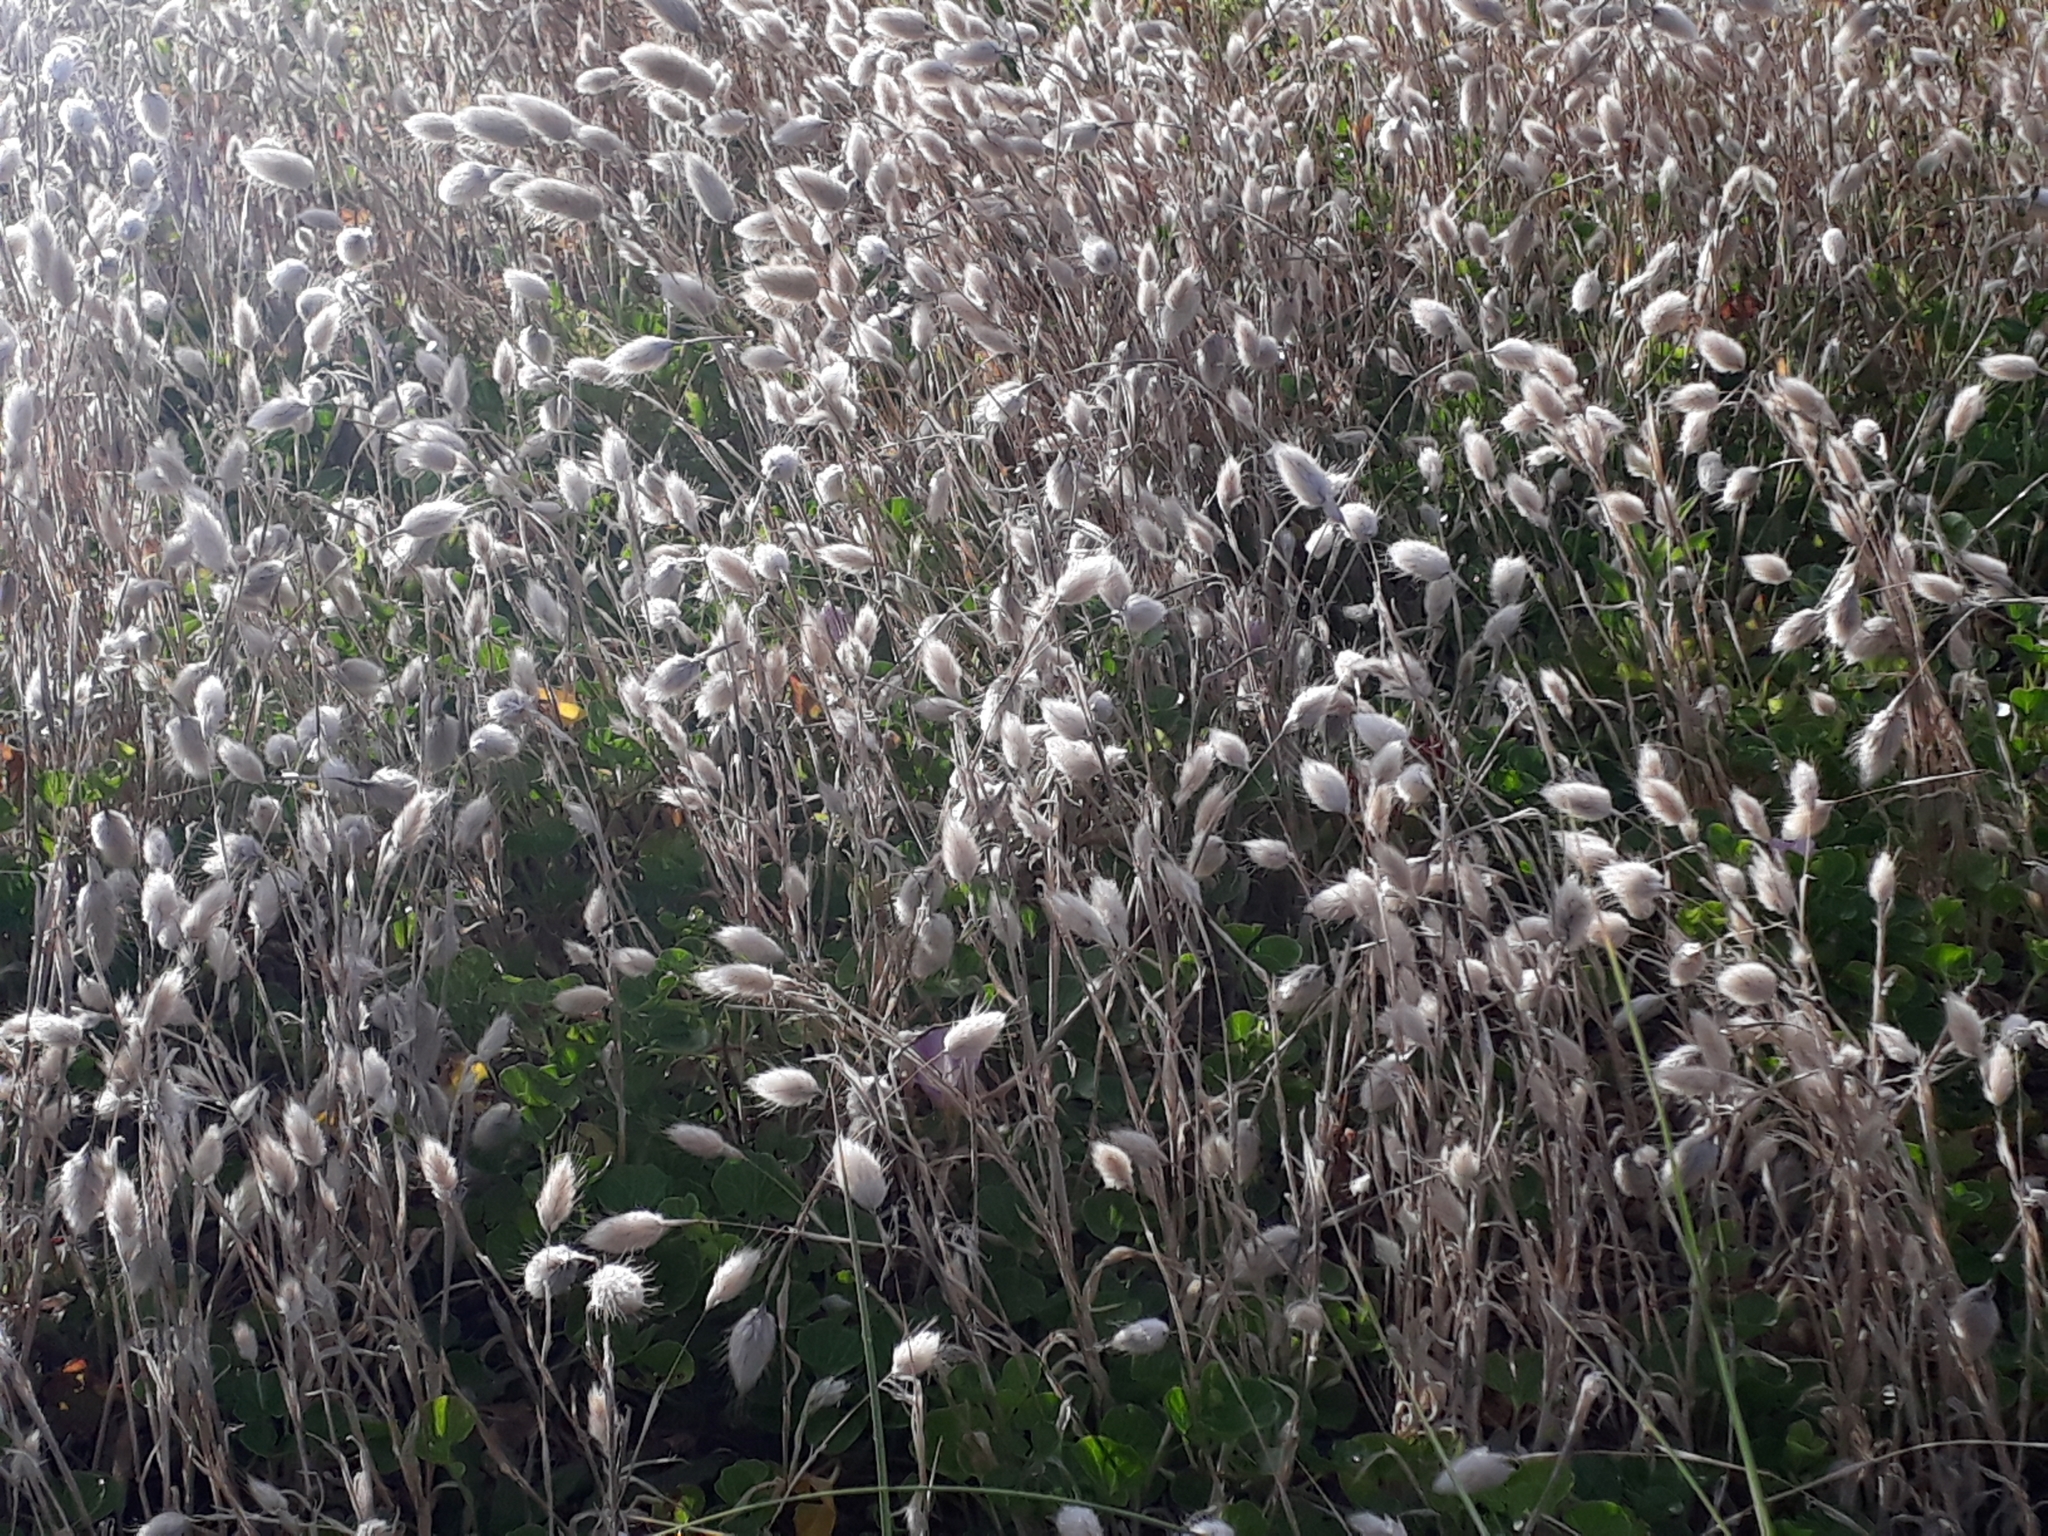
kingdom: Plantae
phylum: Tracheophyta
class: Liliopsida
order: Poales
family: Poaceae
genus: Lagurus
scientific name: Lagurus ovatus
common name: Hare's-tail
